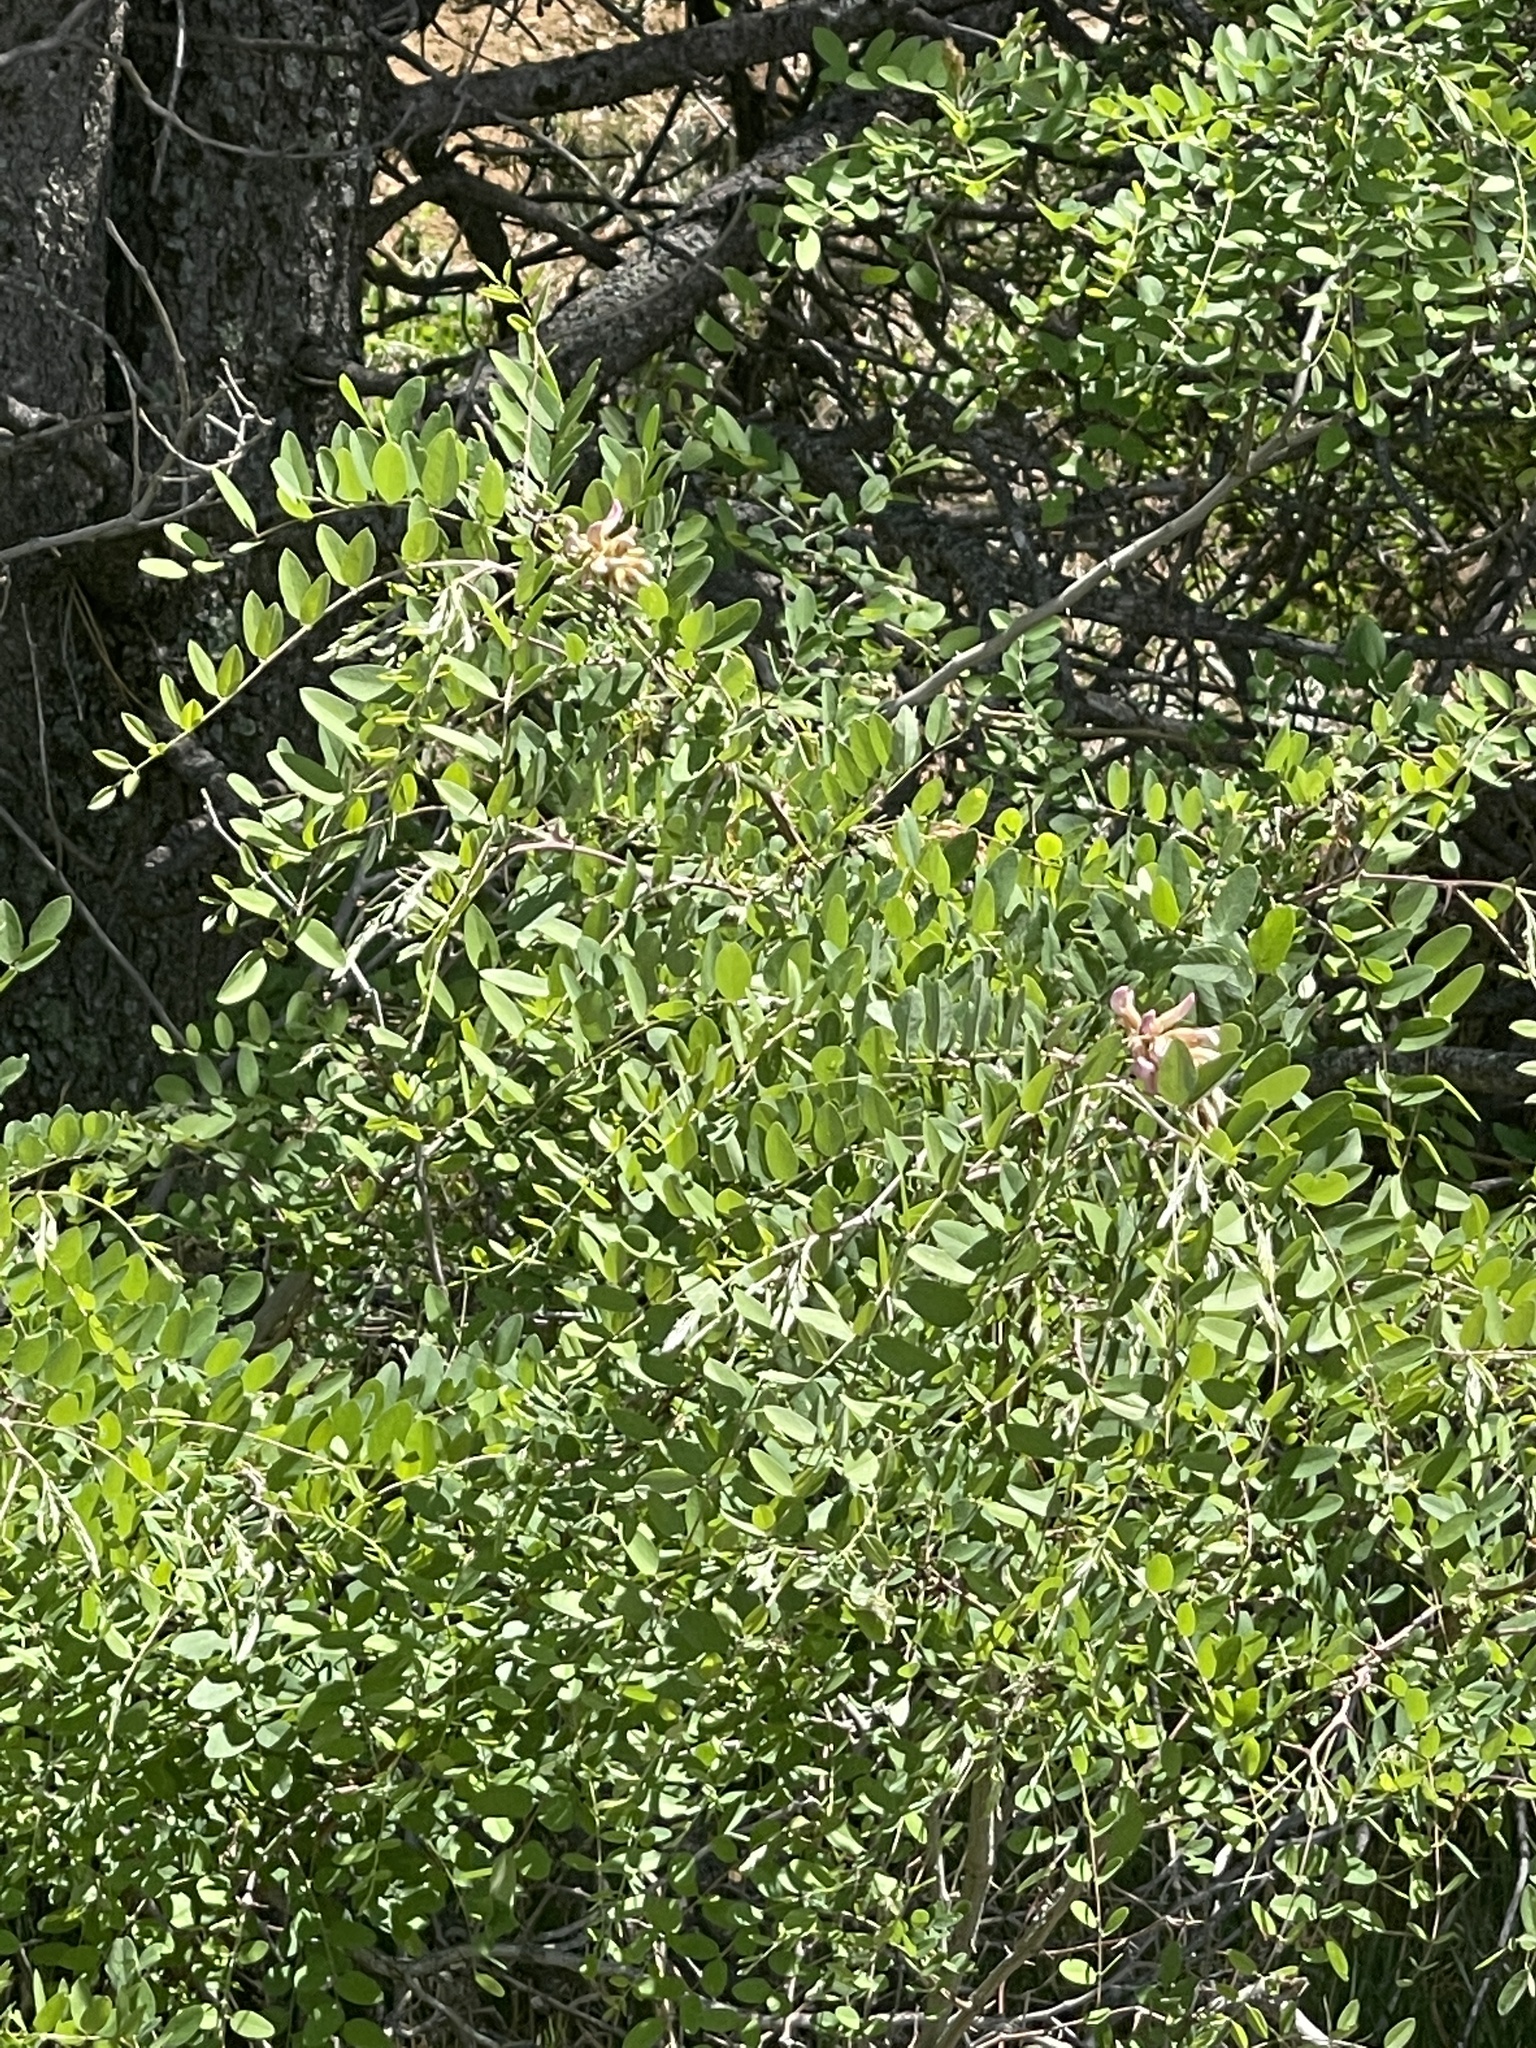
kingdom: Plantae
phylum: Tracheophyta
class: Magnoliopsida
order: Fabales
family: Fabaceae
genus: Robinia
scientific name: Robinia neomexicana
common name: New mexico locust
